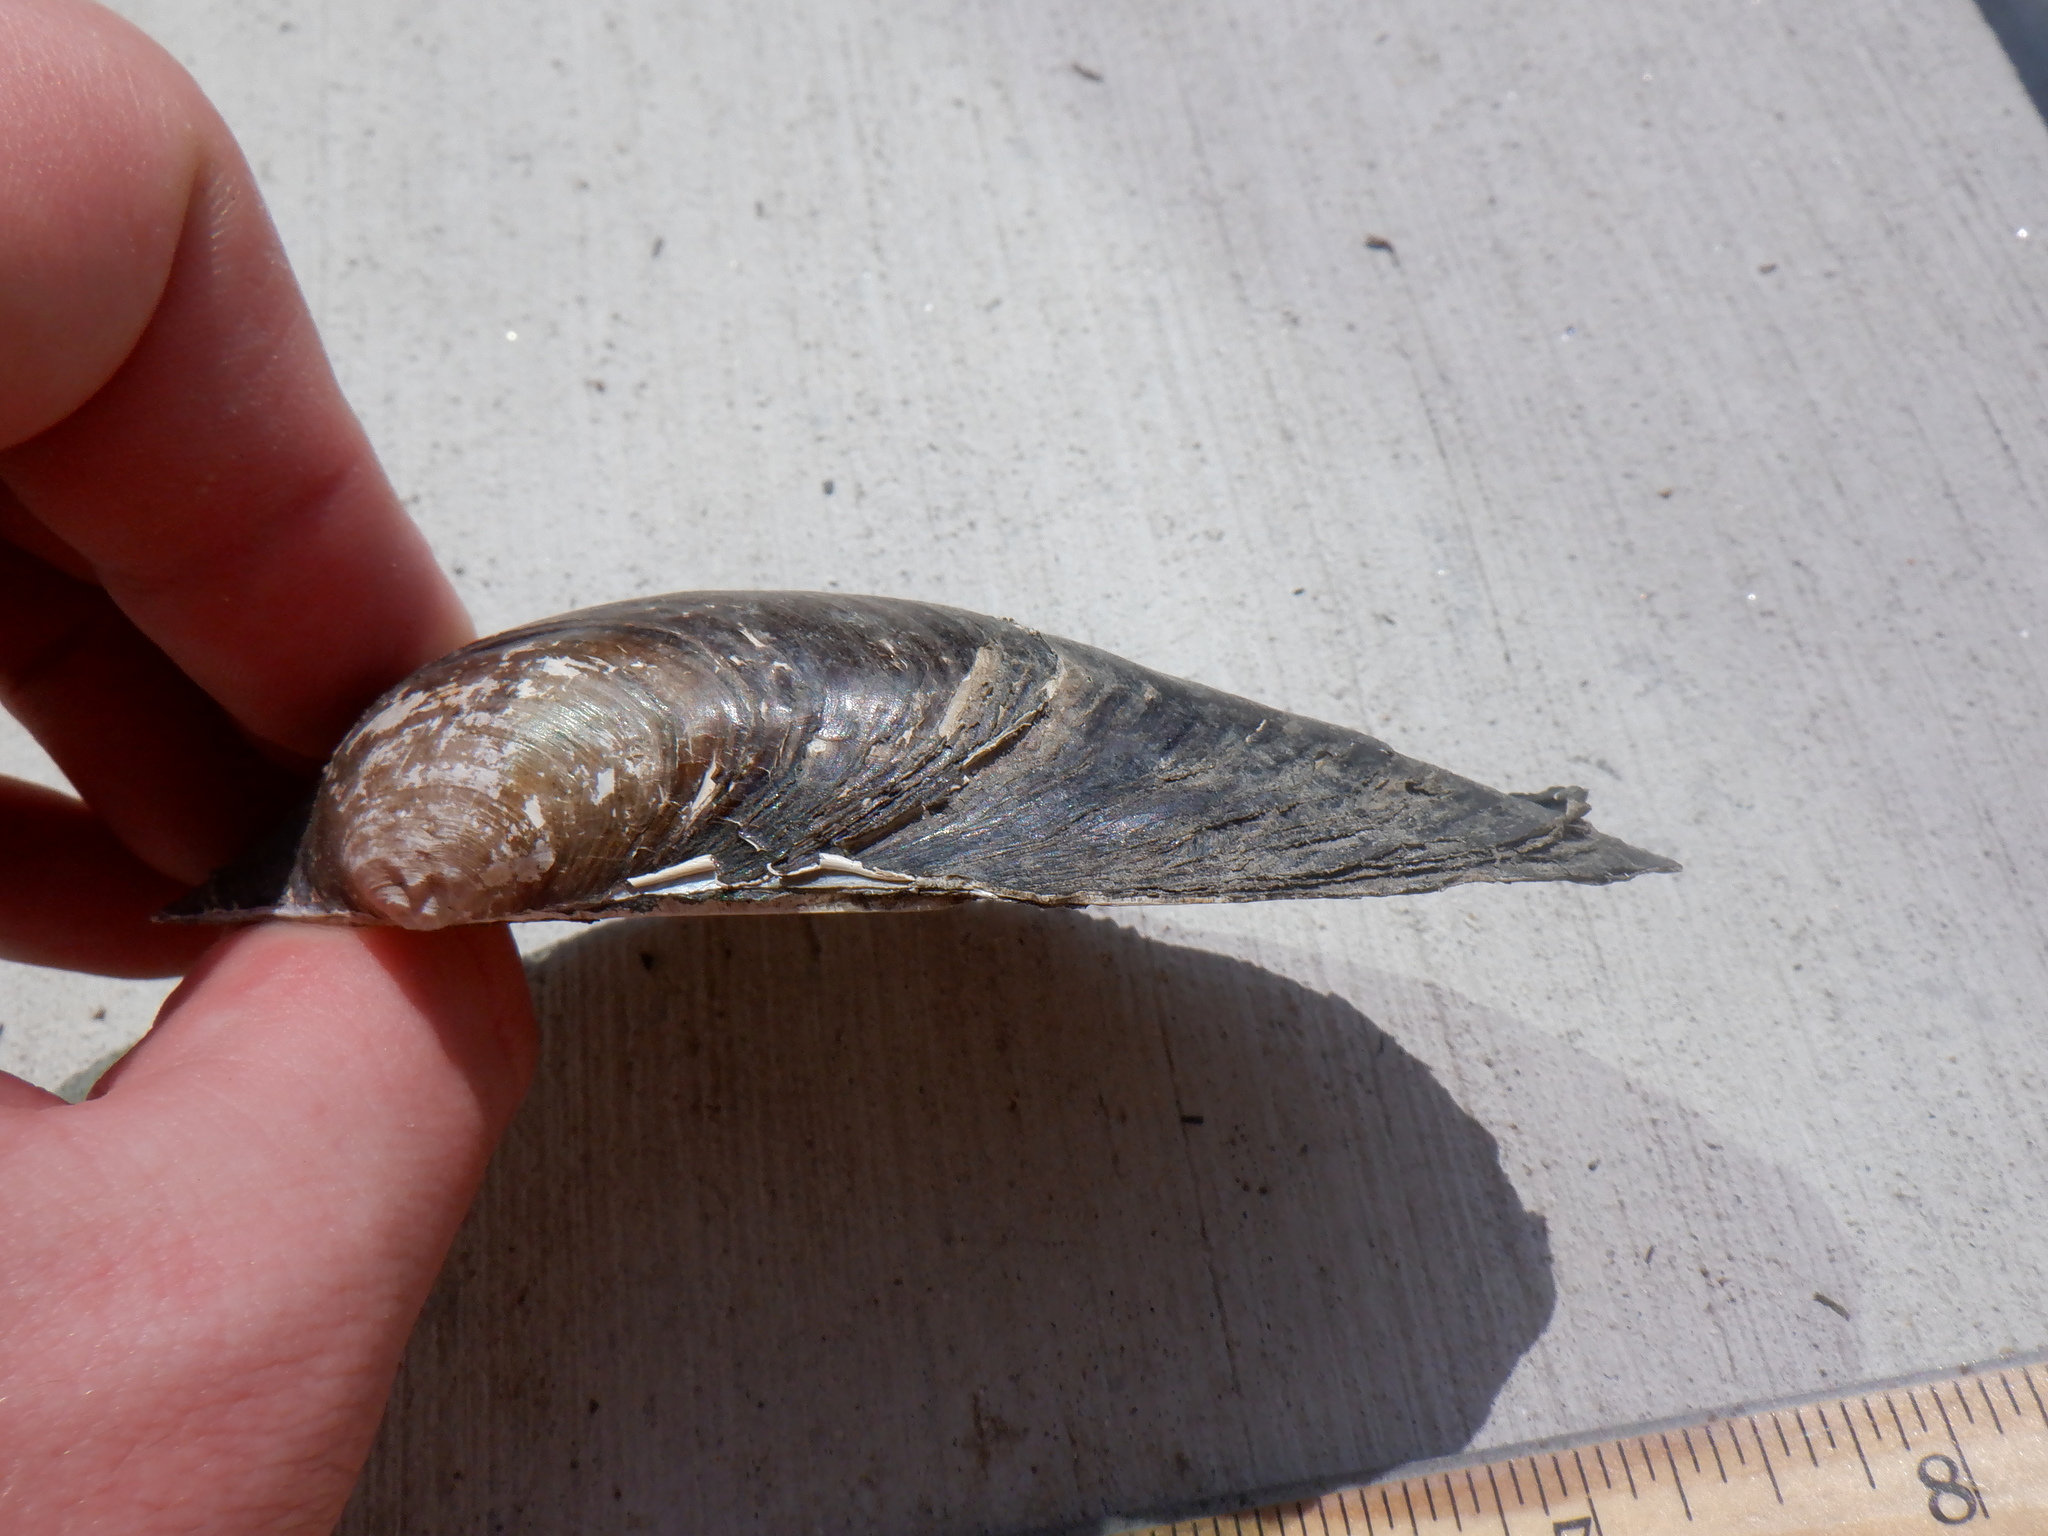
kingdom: Animalia
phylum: Mollusca
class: Bivalvia
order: Unionida
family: Unionidae
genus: Pyganodon
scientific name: Pyganodon grandis
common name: Giant floater
